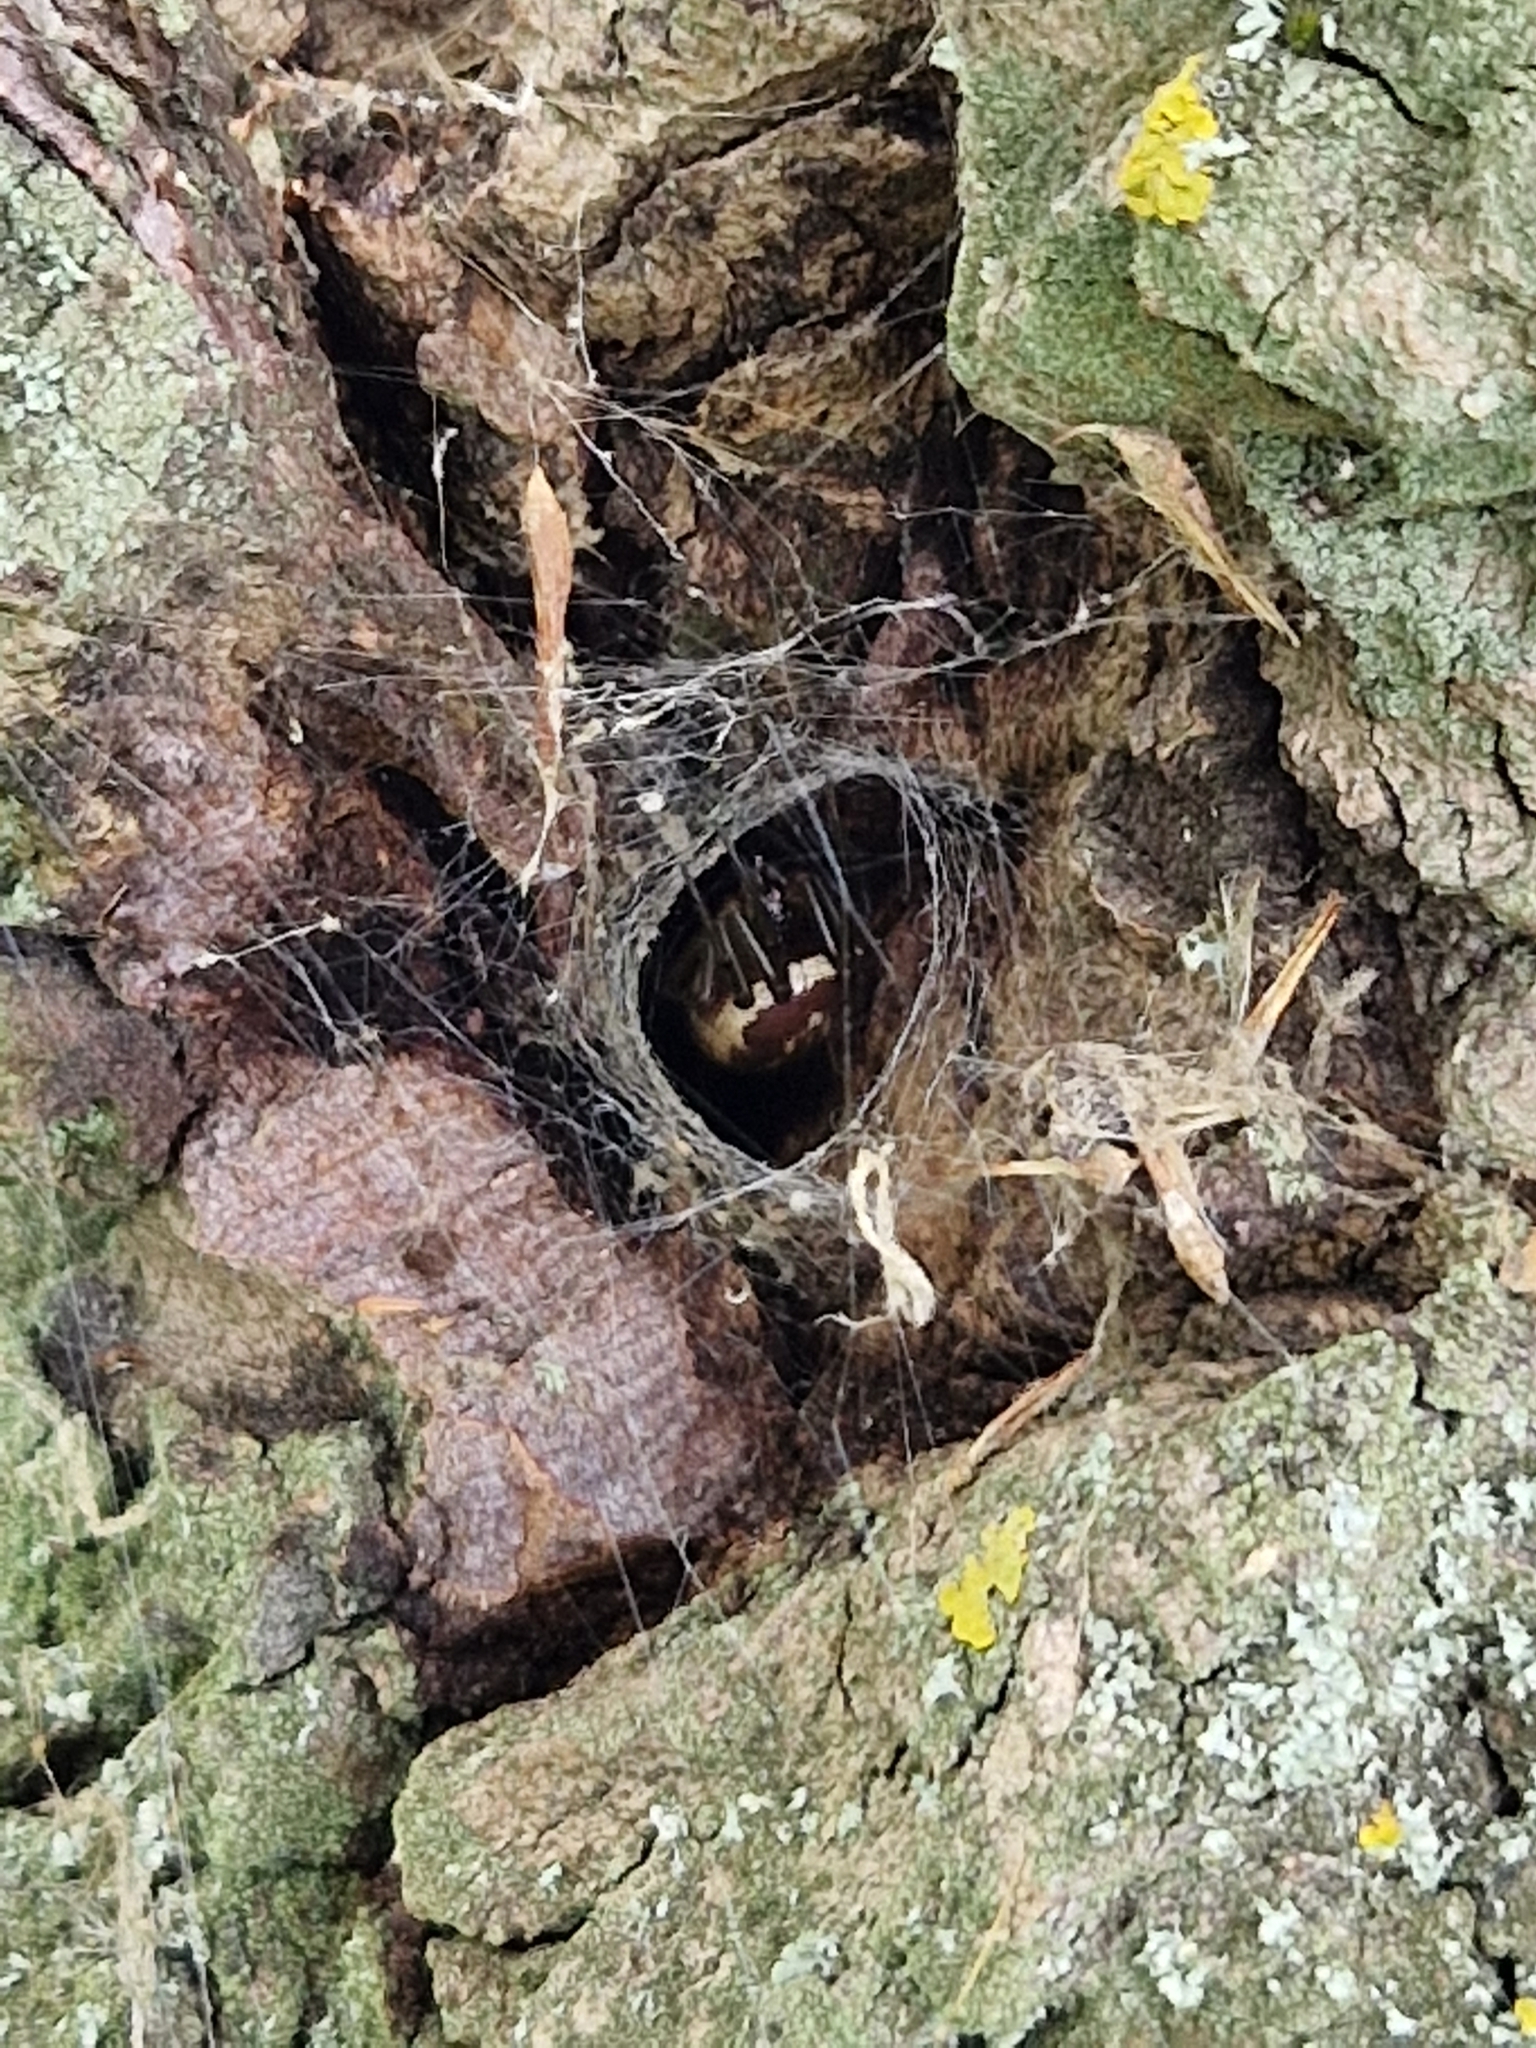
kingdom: Animalia
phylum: Arthropoda
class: Arachnida
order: Araneae
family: Theridiidae
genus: Steatoda
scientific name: Steatoda nobilis
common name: Cobweb weaver
